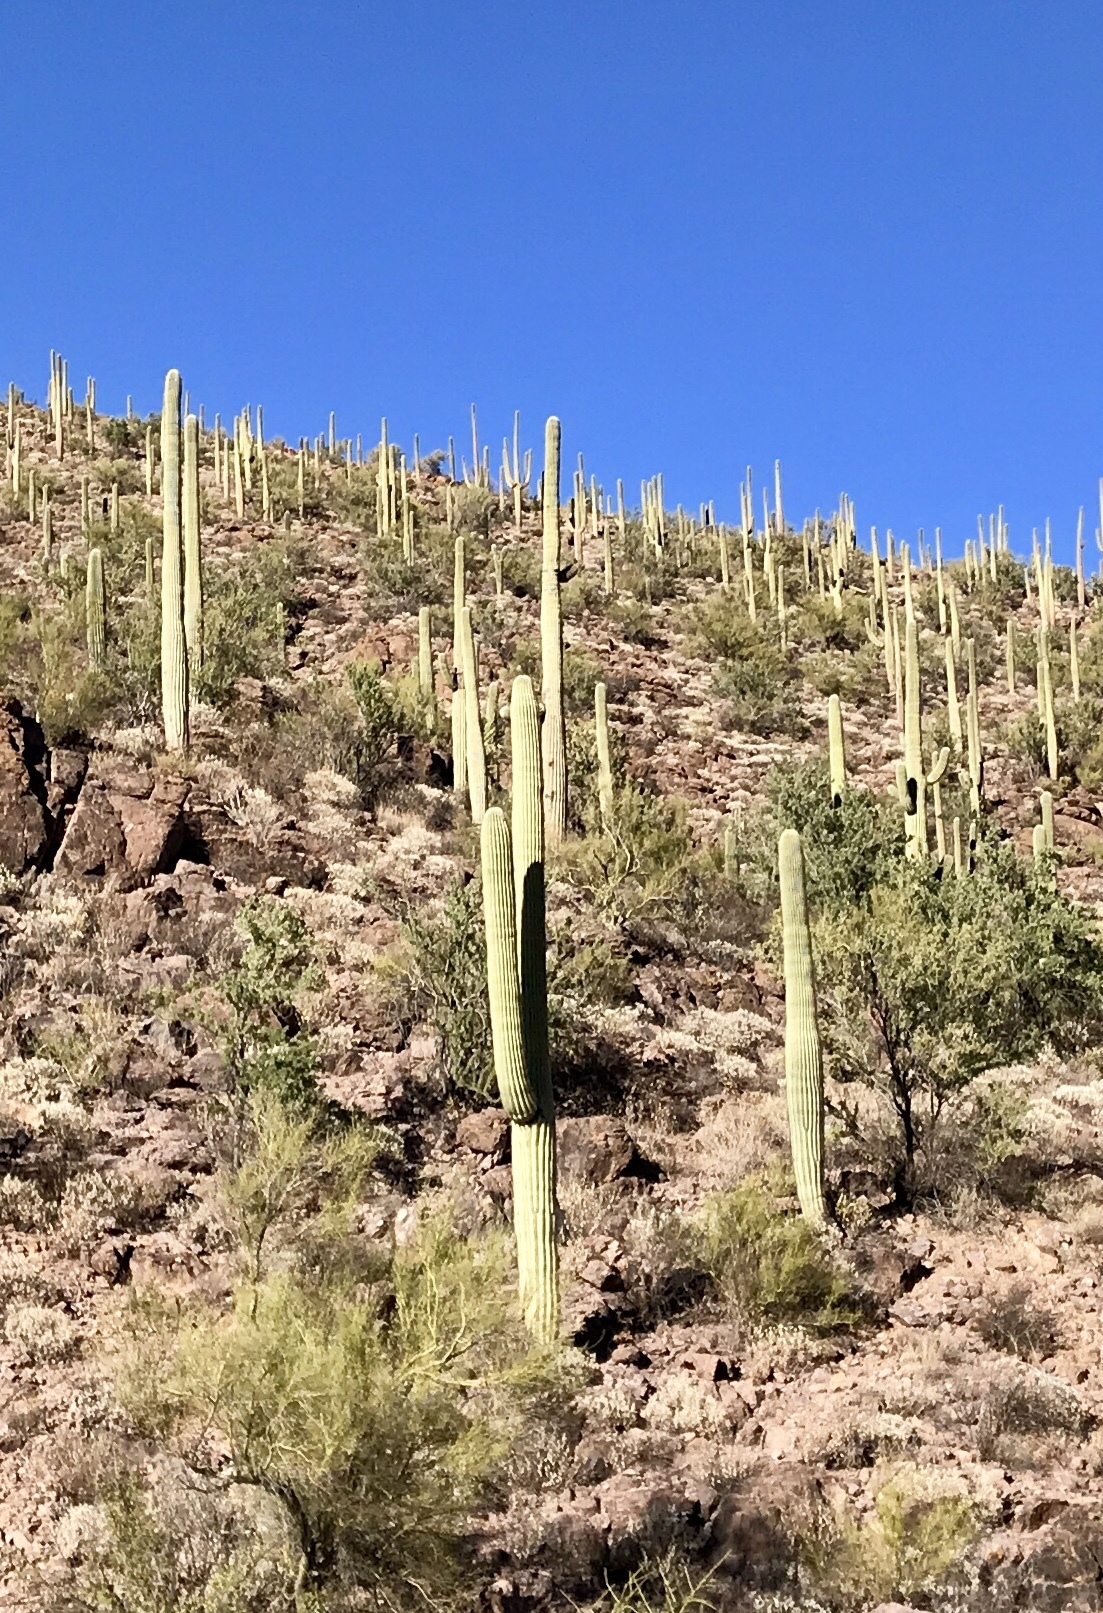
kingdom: Plantae
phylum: Tracheophyta
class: Magnoliopsida
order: Caryophyllales
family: Cactaceae
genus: Carnegiea
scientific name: Carnegiea gigantea
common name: Saguaro
